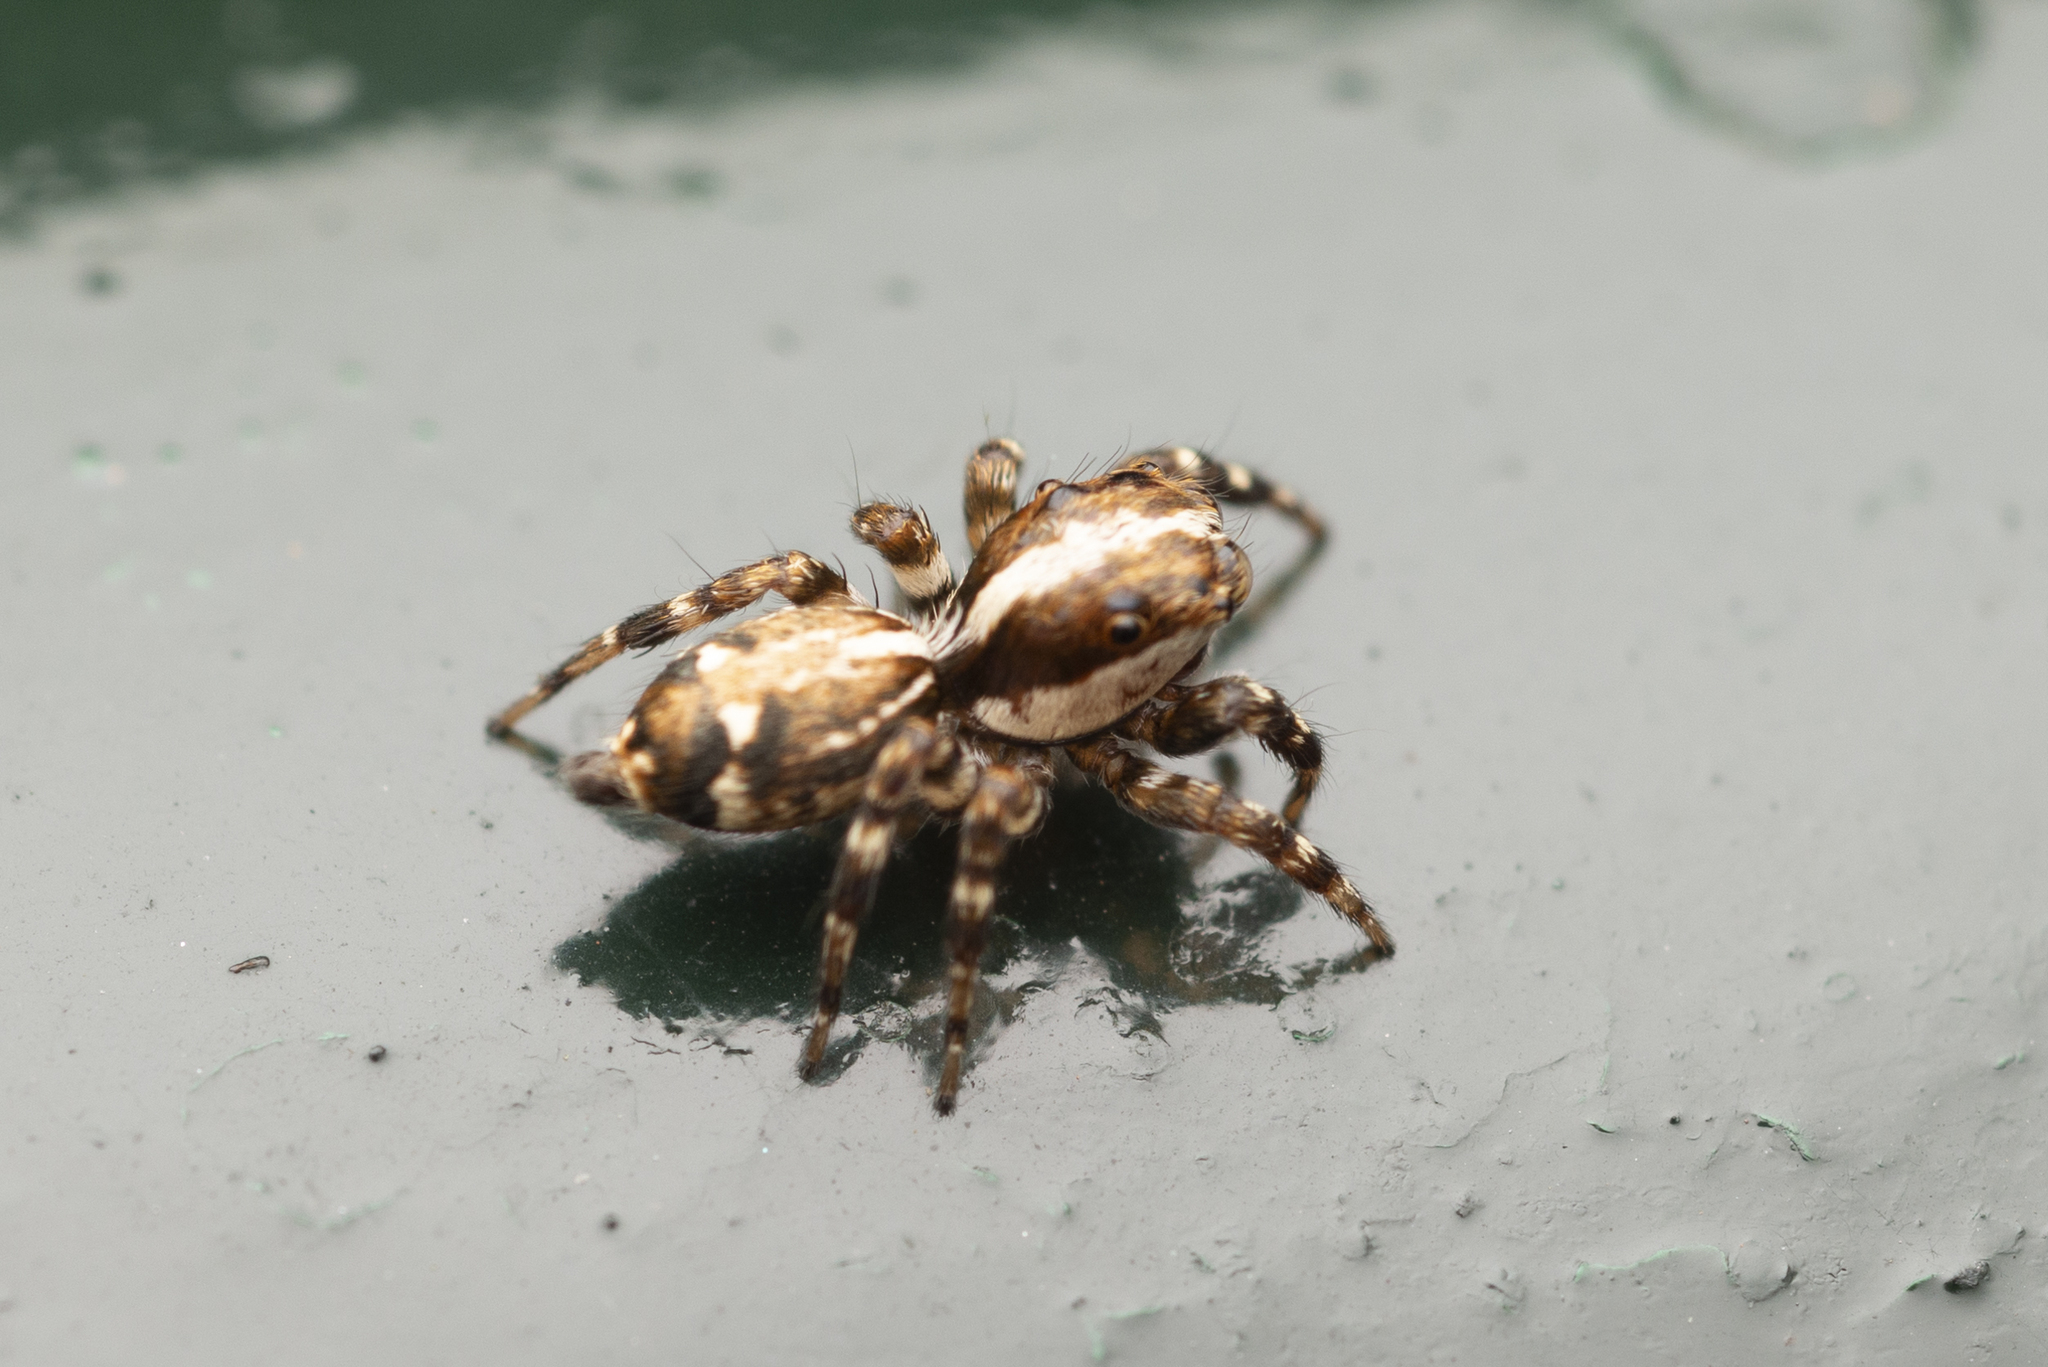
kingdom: Animalia
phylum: Arthropoda
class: Arachnida
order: Araneae
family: Salticidae
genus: Thyene
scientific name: Thyene orientalis
